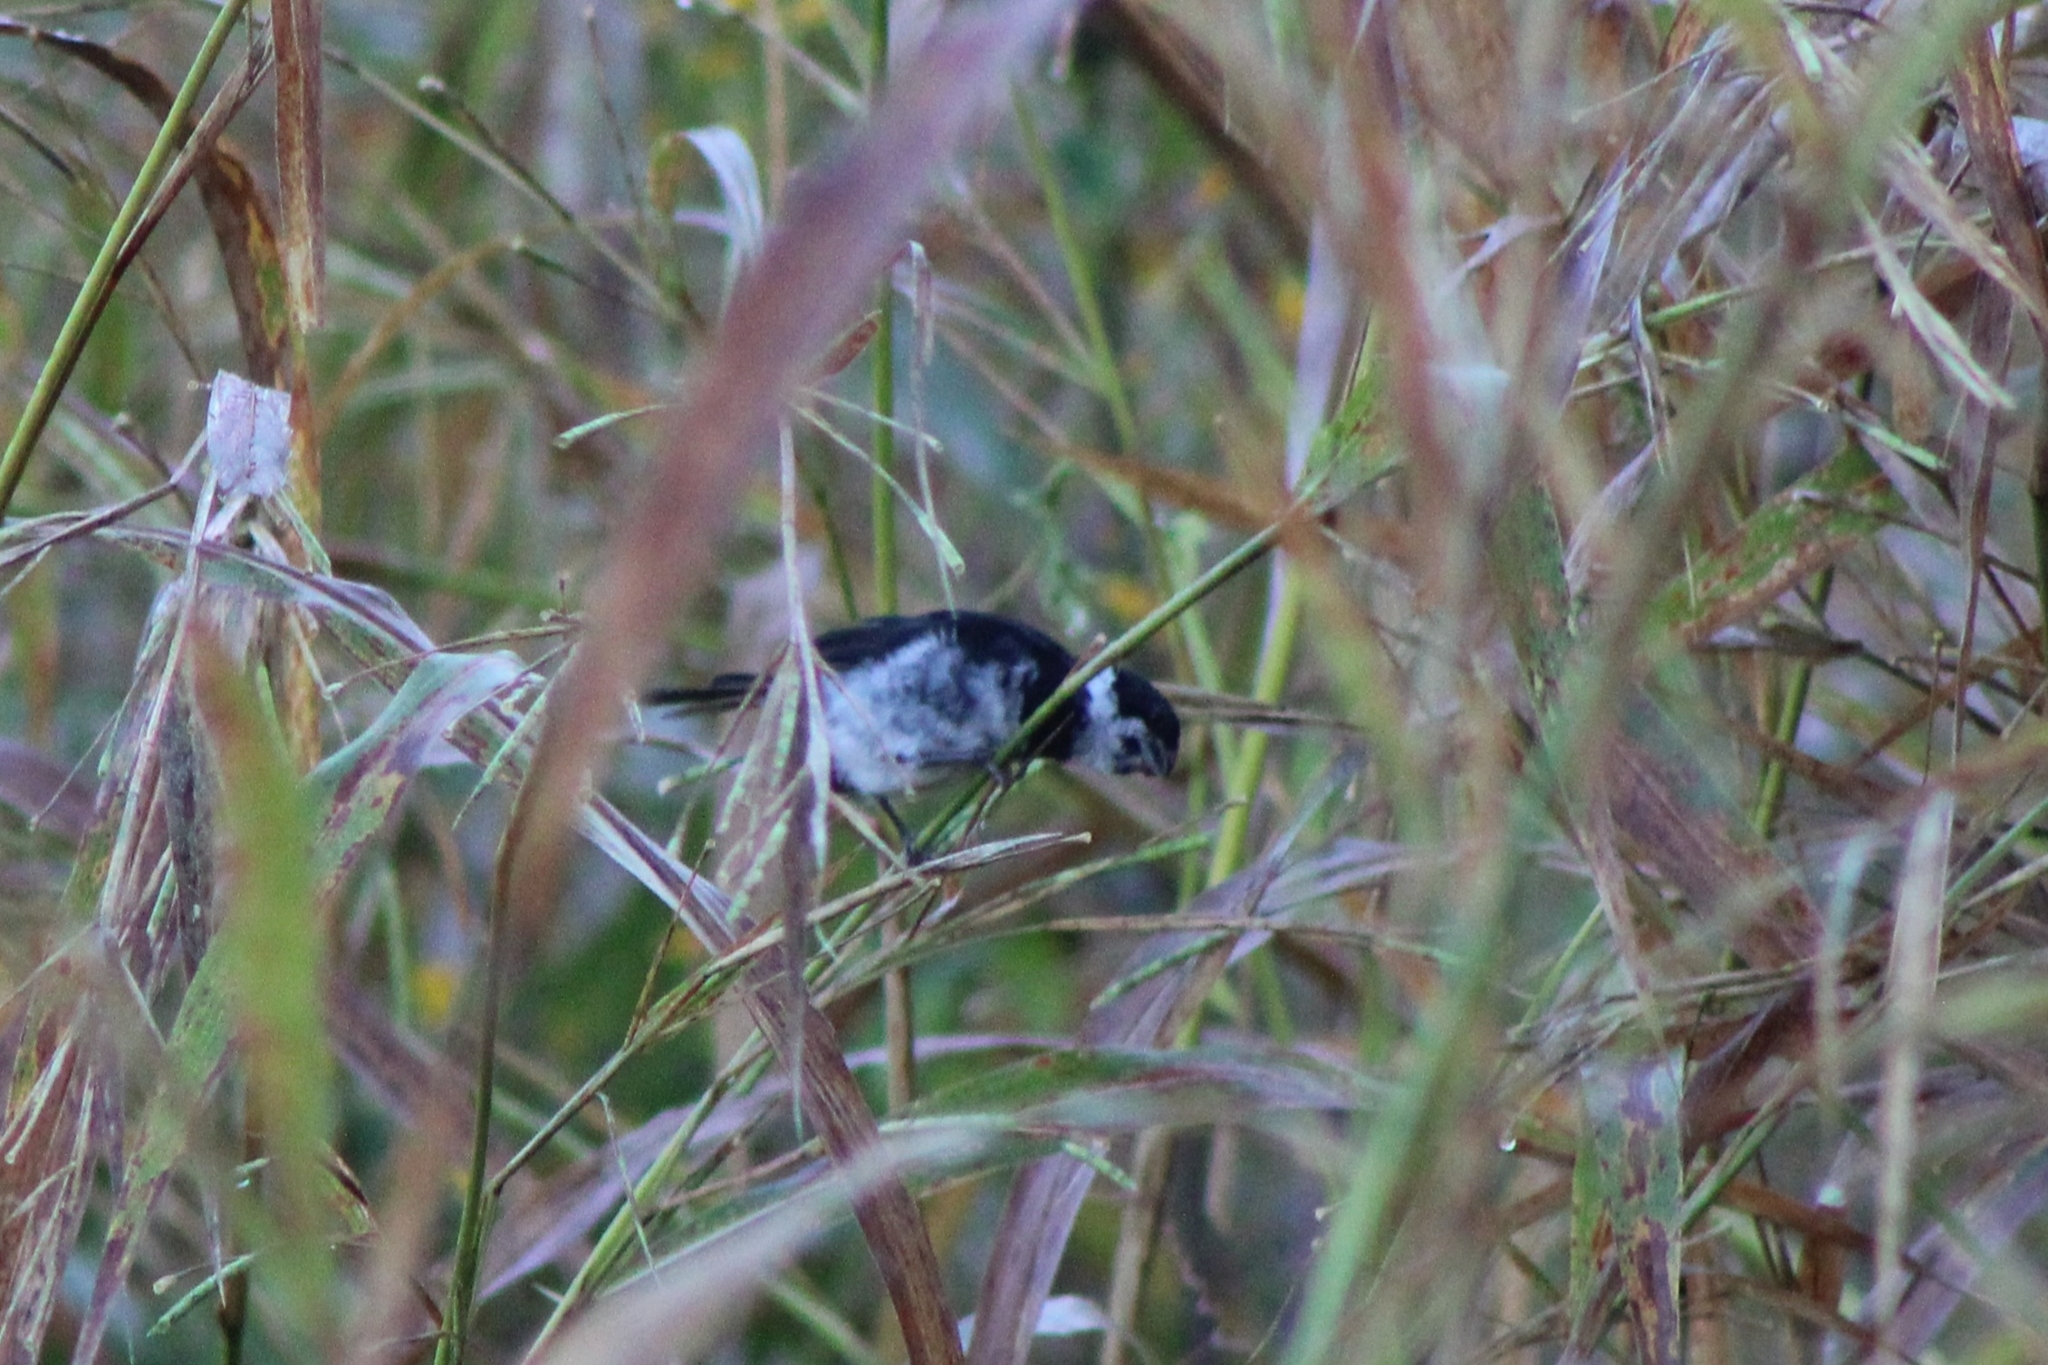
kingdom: Animalia
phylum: Chordata
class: Aves
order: Passeriformes
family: Thraupidae
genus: Sporophila
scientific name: Sporophila corvina
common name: Variable seedeater
